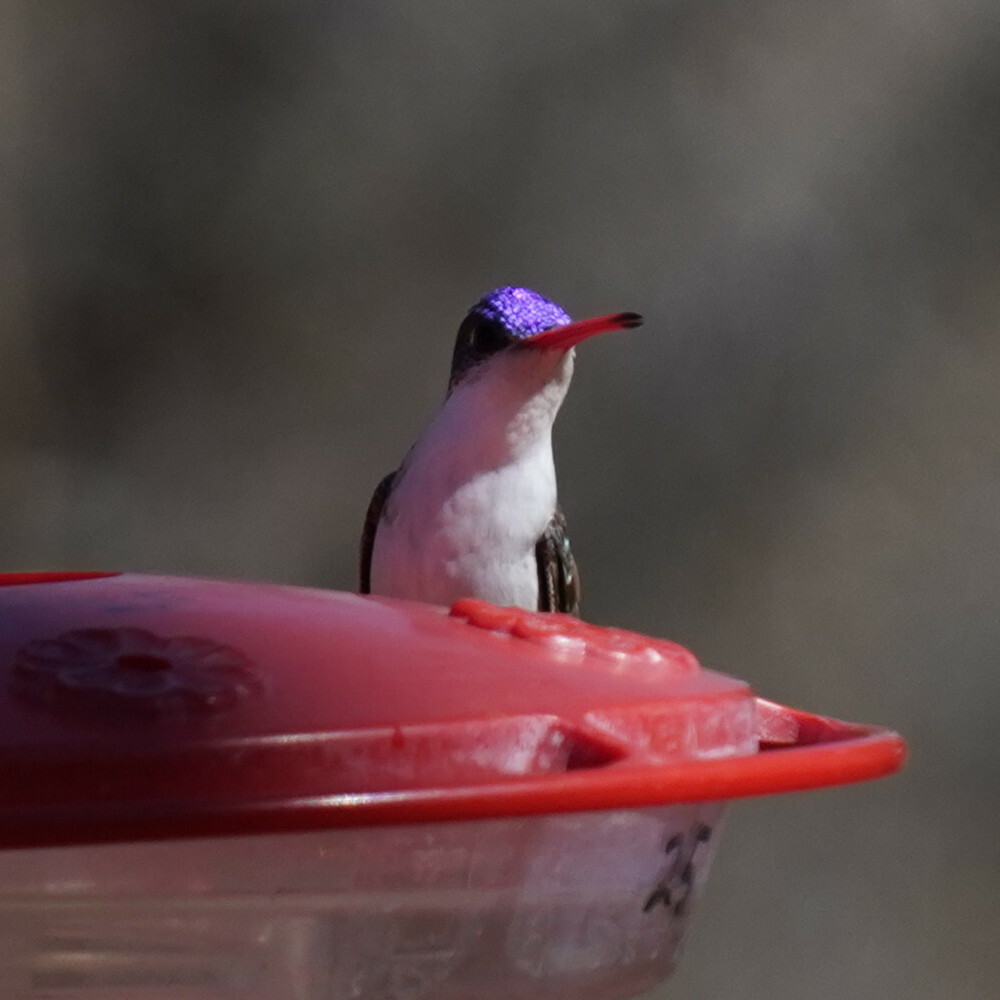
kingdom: Animalia
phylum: Chordata
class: Aves
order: Apodiformes
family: Trochilidae
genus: Leucolia
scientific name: Leucolia violiceps
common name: Violet-crowned hummingbird
